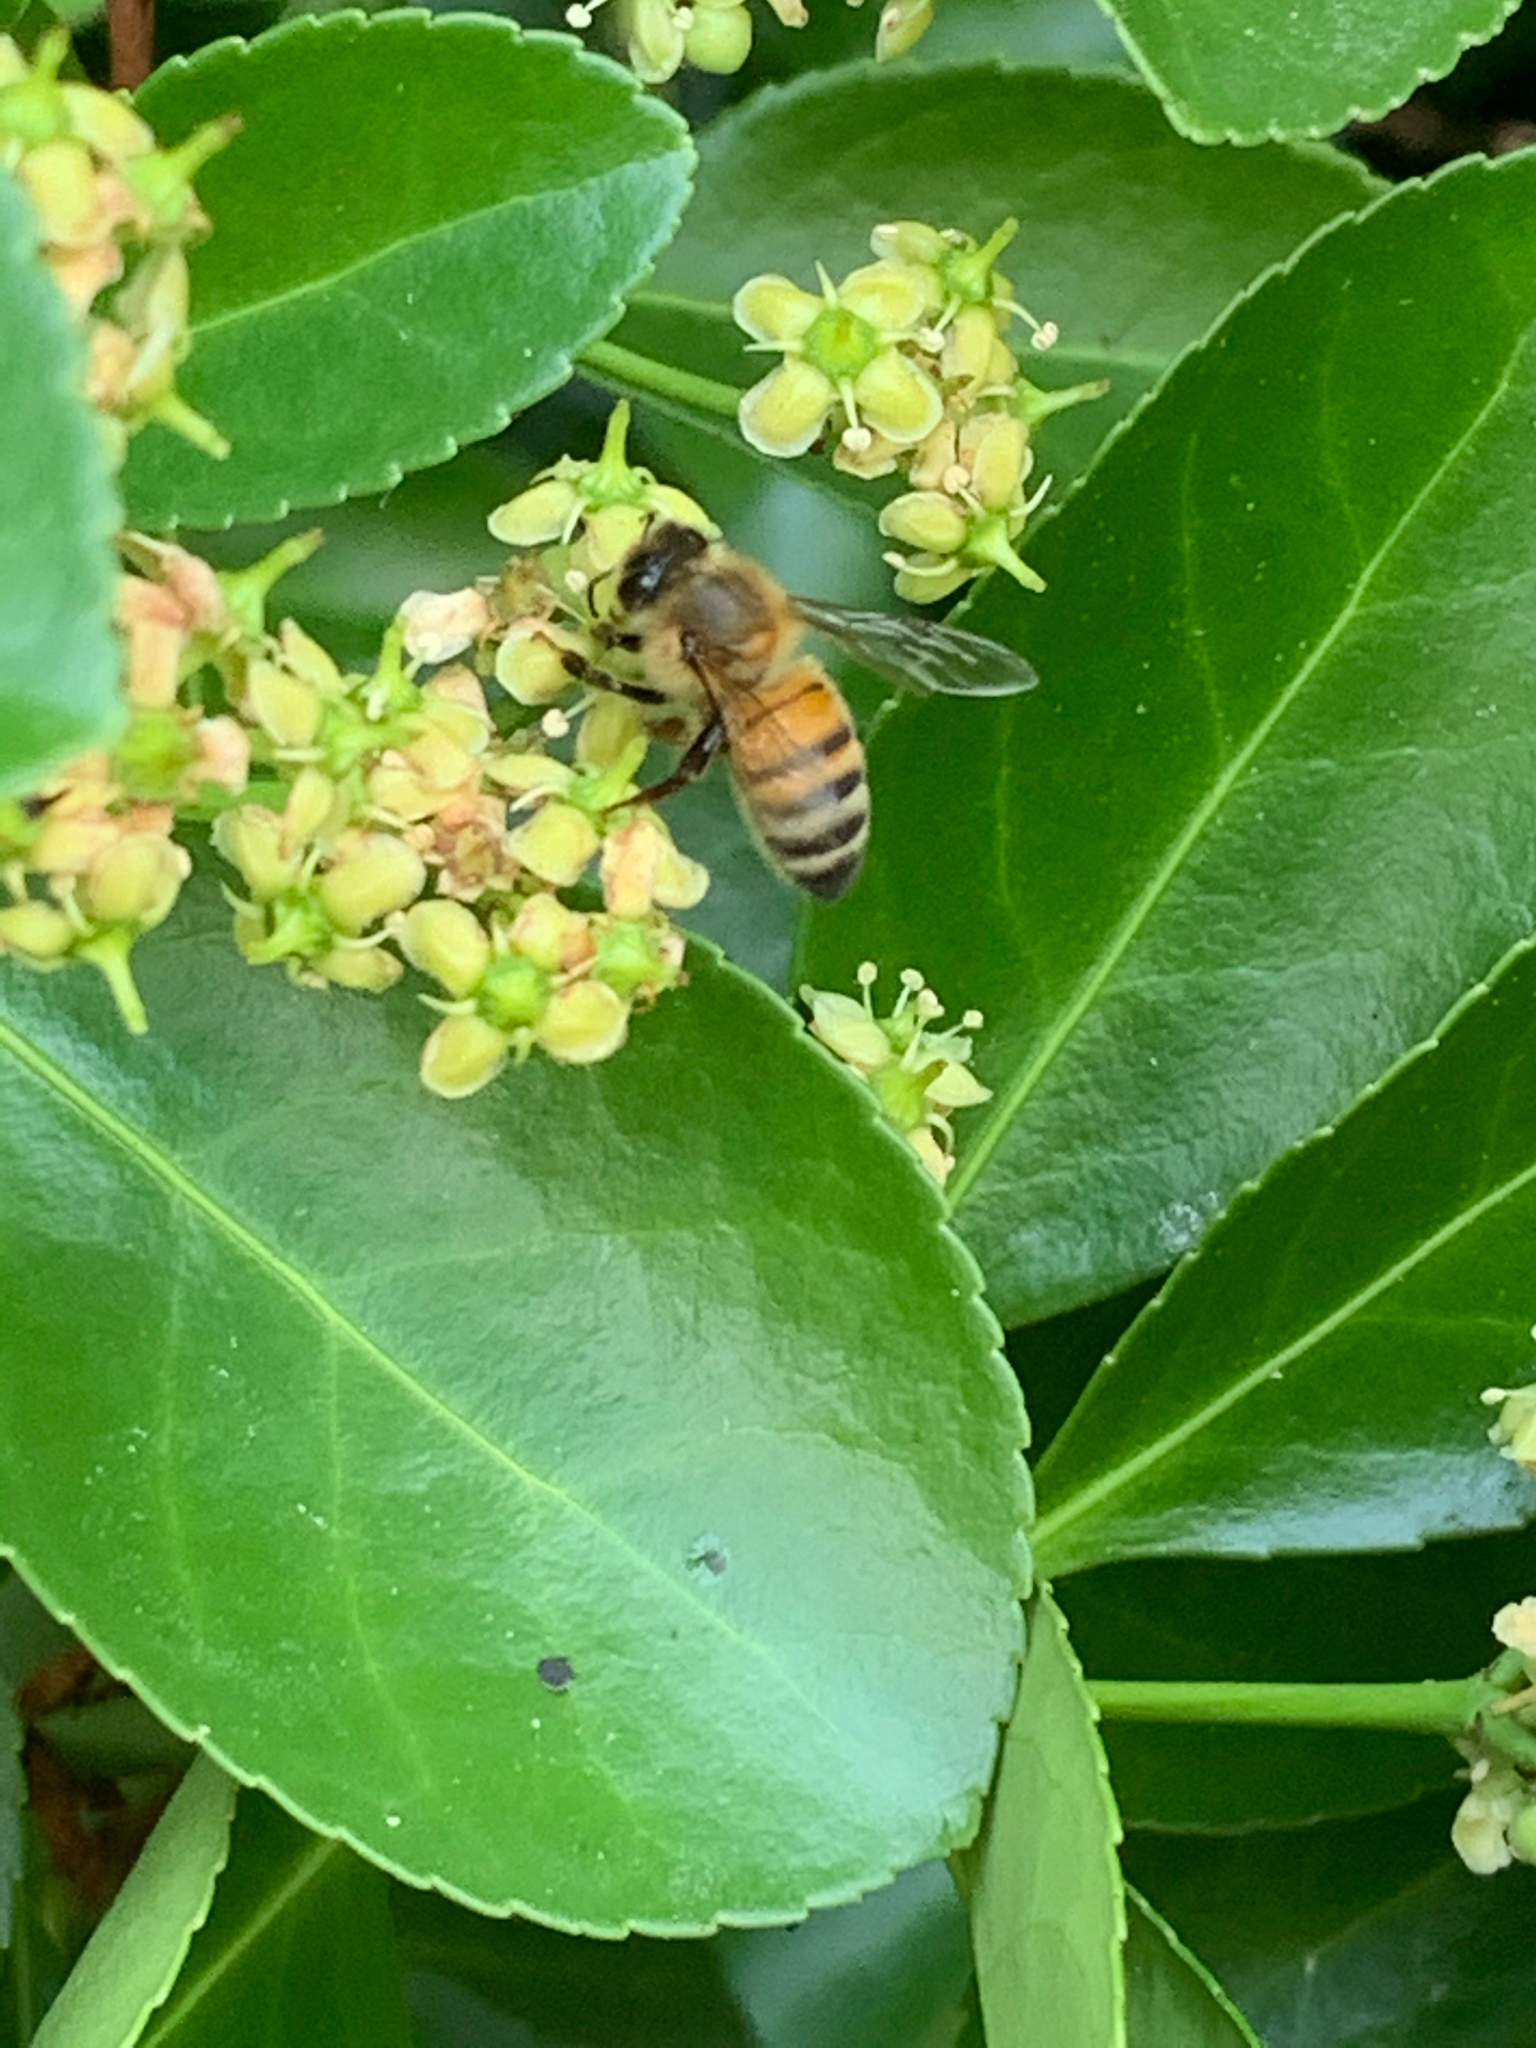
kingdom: Animalia
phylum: Arthropoda
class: Insecta
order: Hymenoptera
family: Apidae
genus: Apis
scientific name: Apis mellifera
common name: Honey bee
